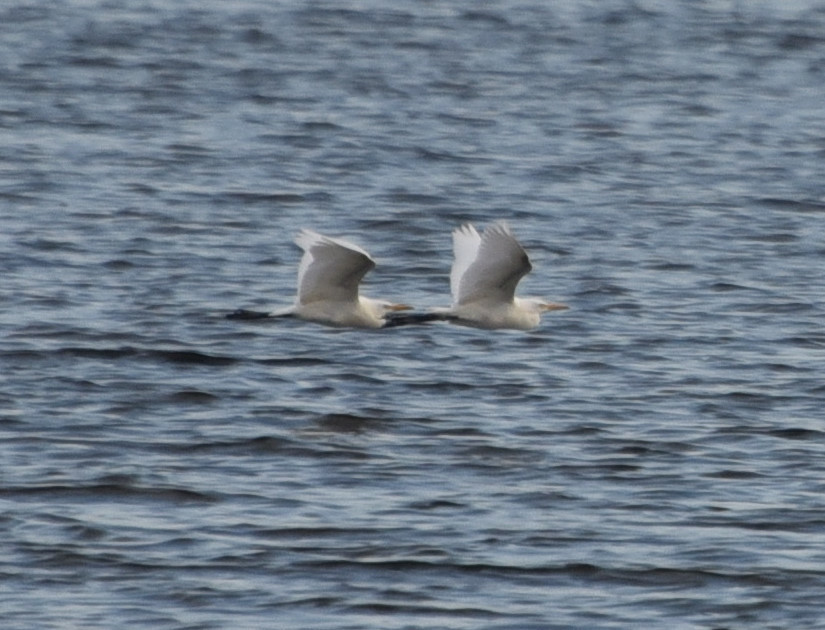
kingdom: Animalia
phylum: Chordata
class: Aves
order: Pelecaniformes
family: Ardeidae
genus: Bubulcus
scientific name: Bubulcus ibis
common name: Cattle egret
